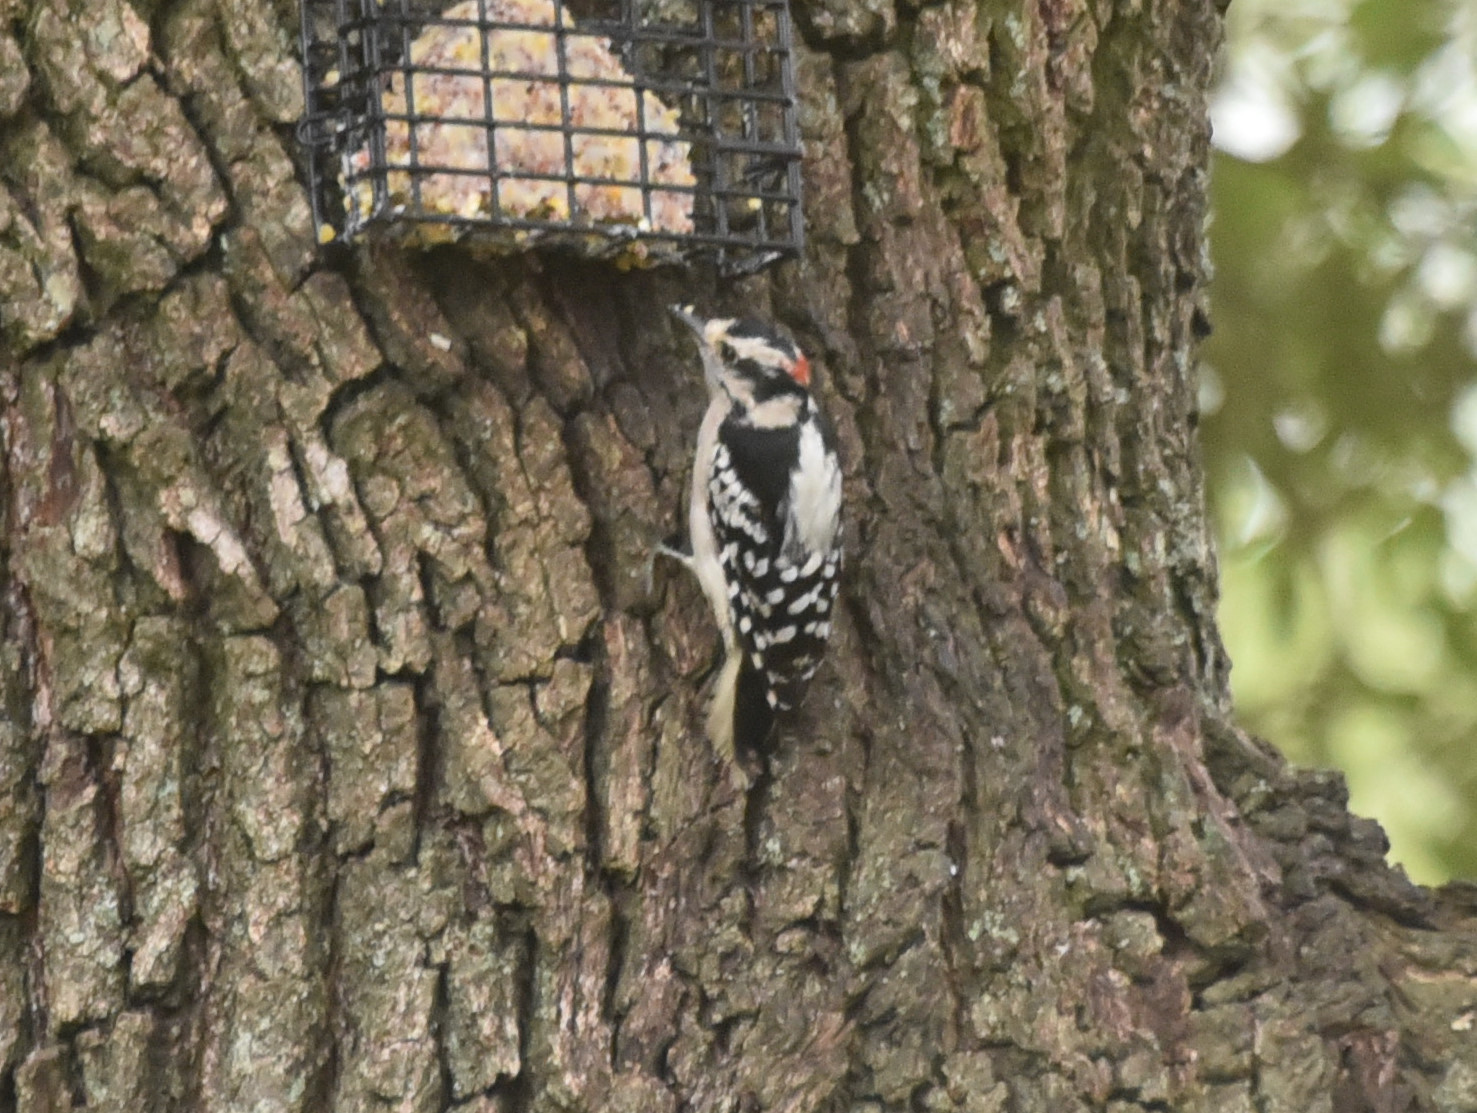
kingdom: Animalia
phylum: Chordata
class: Aves
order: Piciformes
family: Picidae
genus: Dryobates
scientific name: Dryobates pubescens
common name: Downy woodpecker
